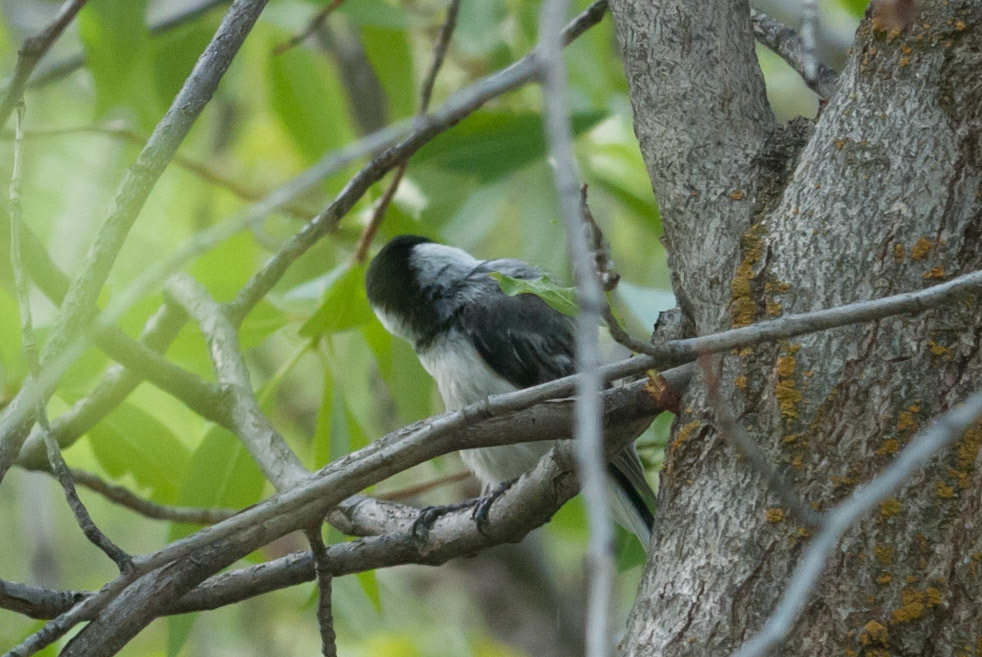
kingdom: Animalia
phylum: Chordata
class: Aves
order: Passeriformes
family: Paridae
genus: Poecile
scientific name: Poecile atricapillus
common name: Black-capped chickadee
